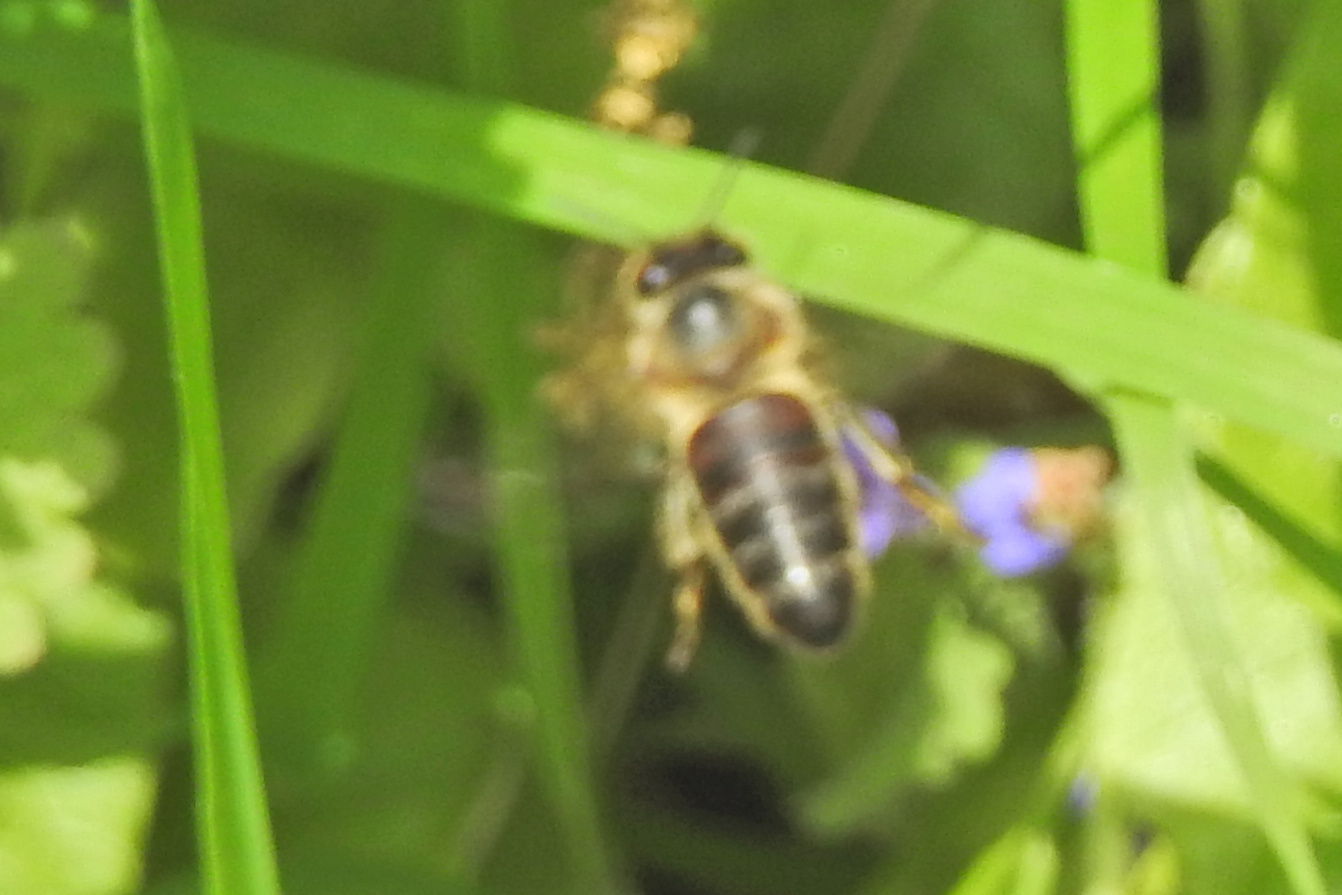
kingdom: Animalia
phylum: Arthropoda
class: Insecta
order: Hymenoptera
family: Apidae
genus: Apis
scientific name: Apis mellifera
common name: Honey bee
